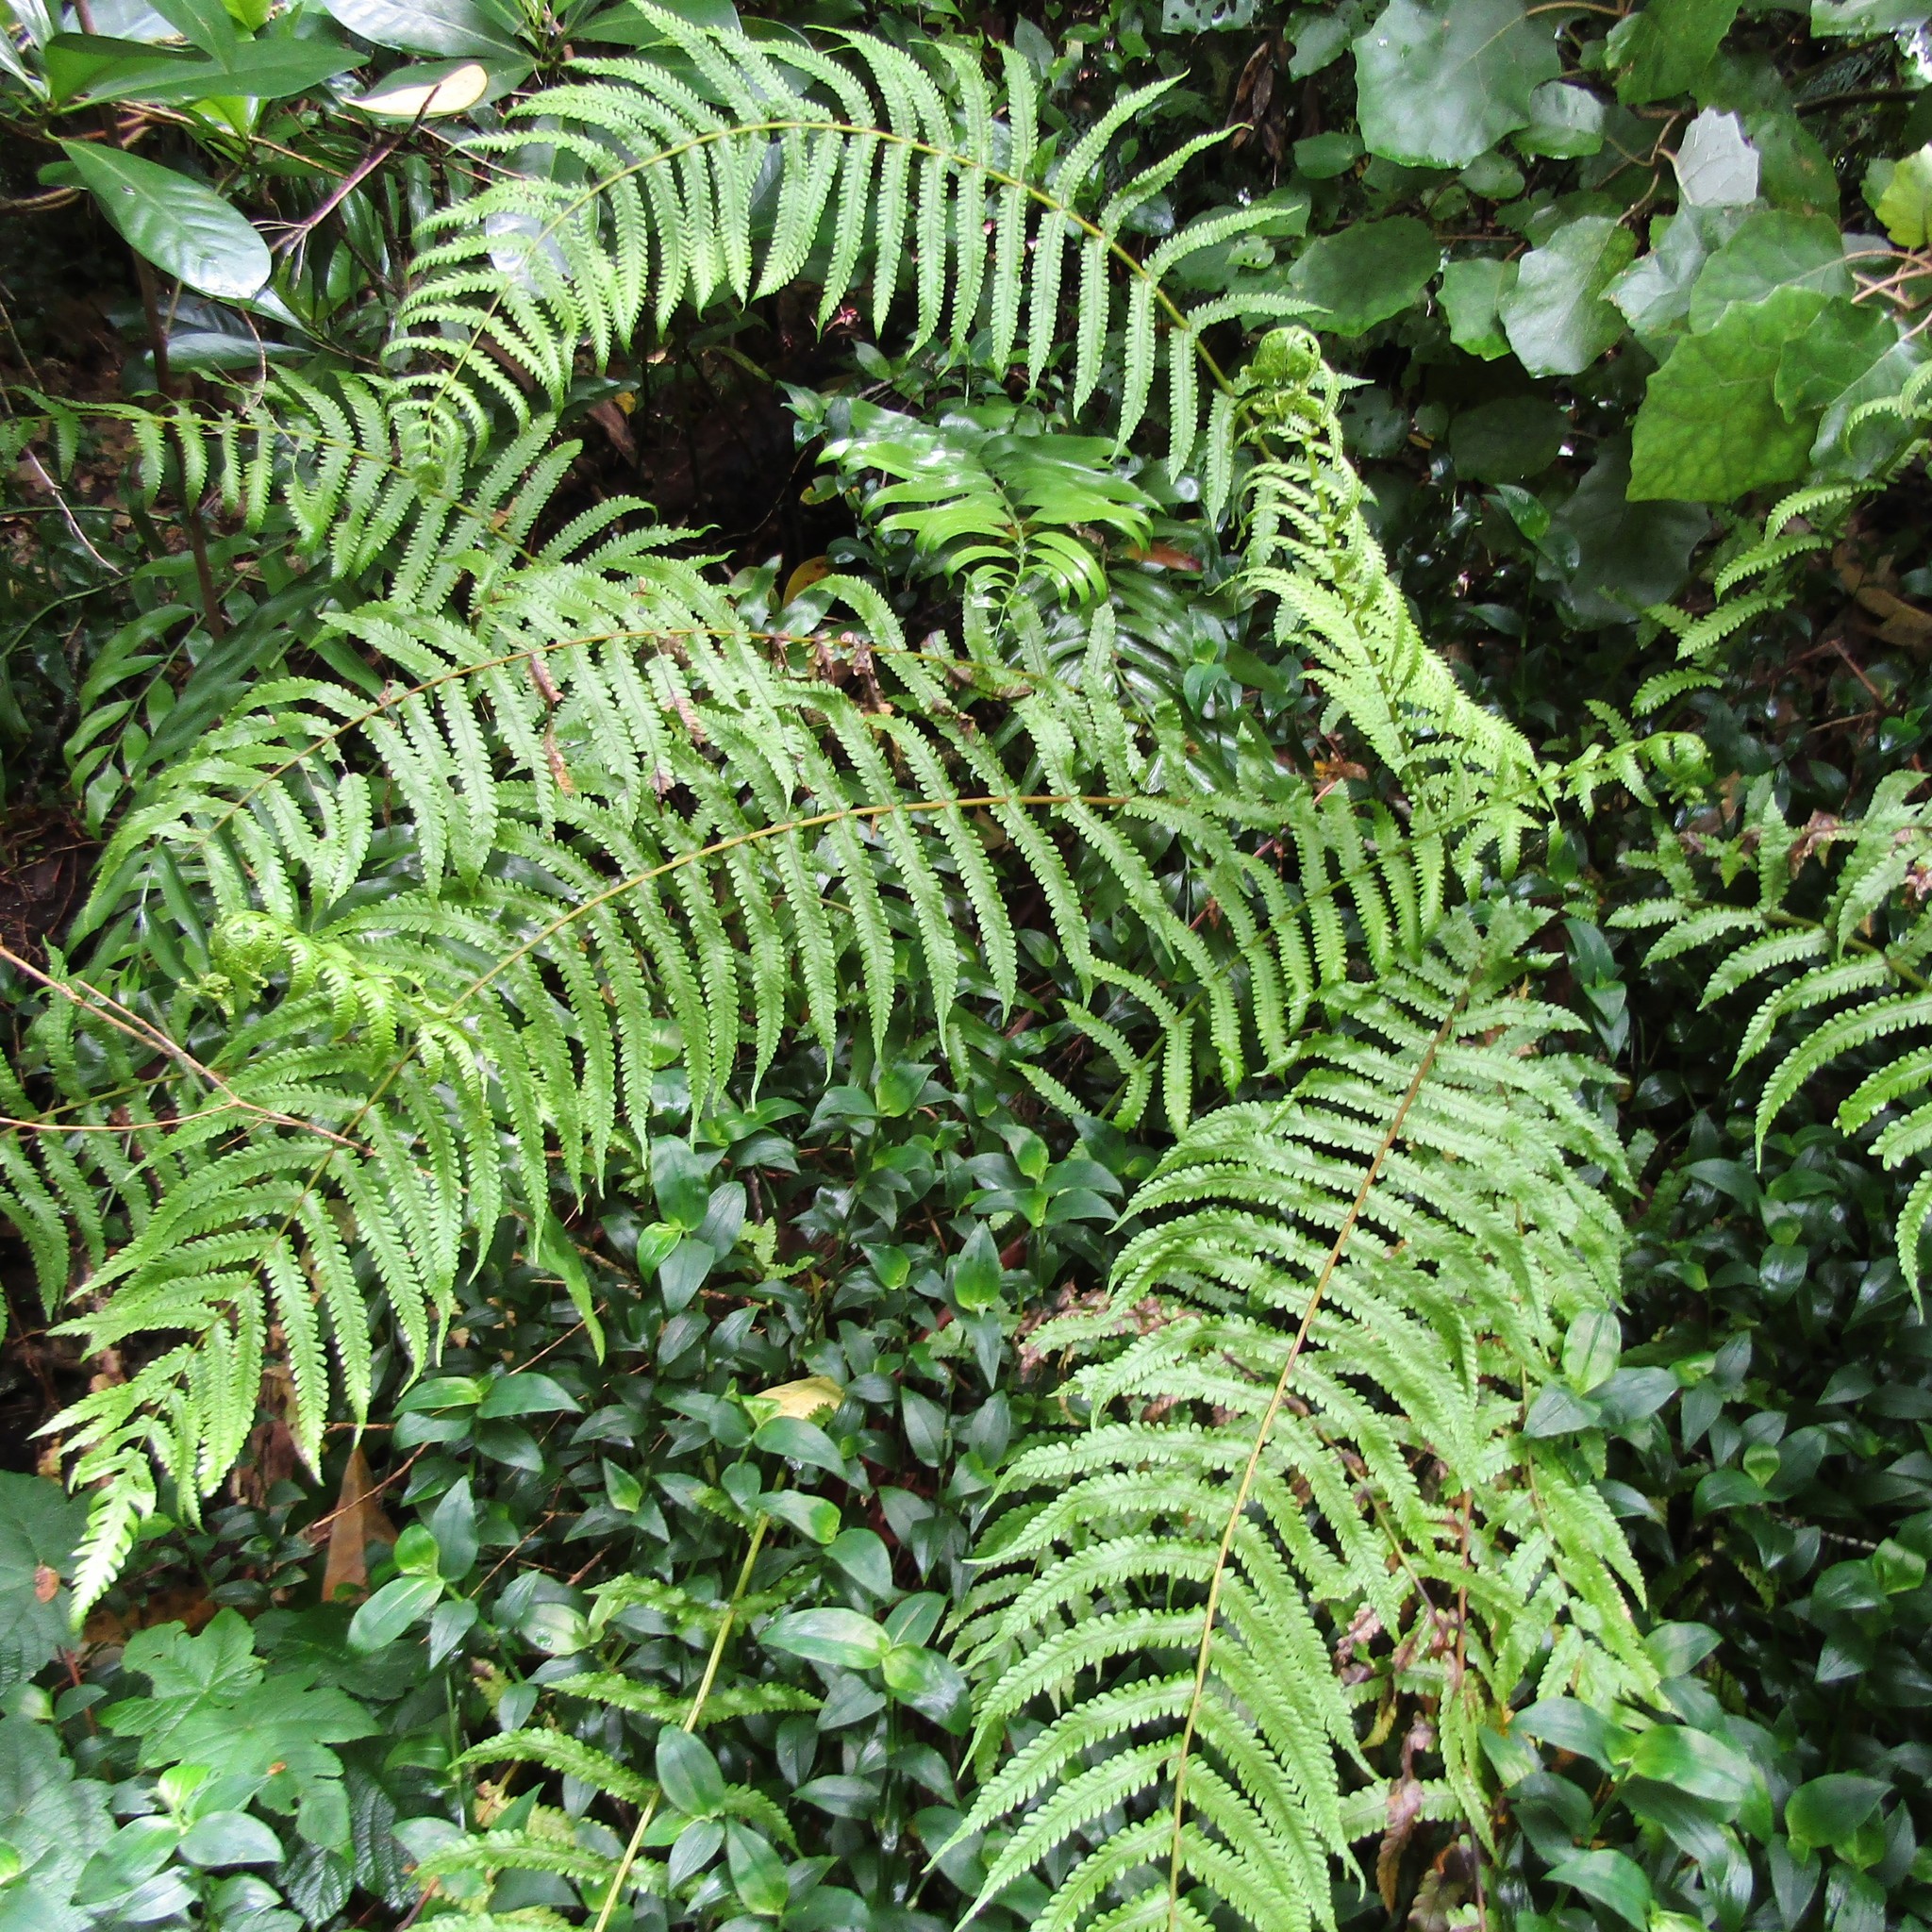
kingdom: Plantae
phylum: Tracheophyta
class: Polypodiopsida
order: Polypodiales
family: Thelypteridaceae
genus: Pakau
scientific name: Pakau pennigera
